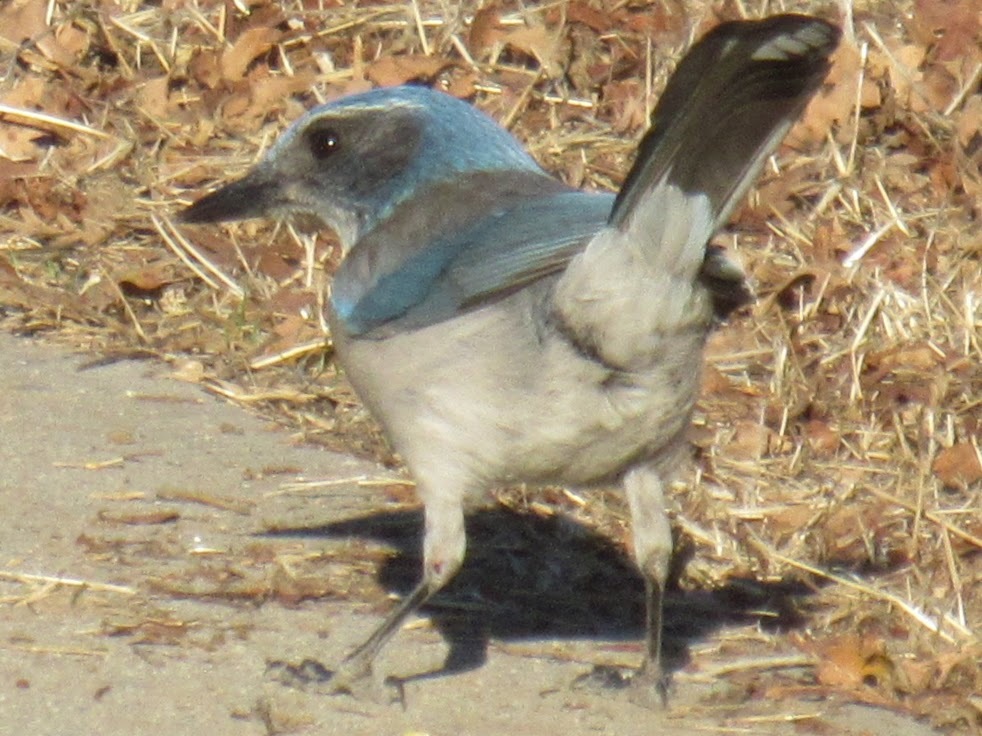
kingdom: Animalia
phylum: Chordata
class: Aves
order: Passeriformes
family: Corvidae
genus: Aphelocoma
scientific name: Aphelocoma californica
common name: California scrub-jay
